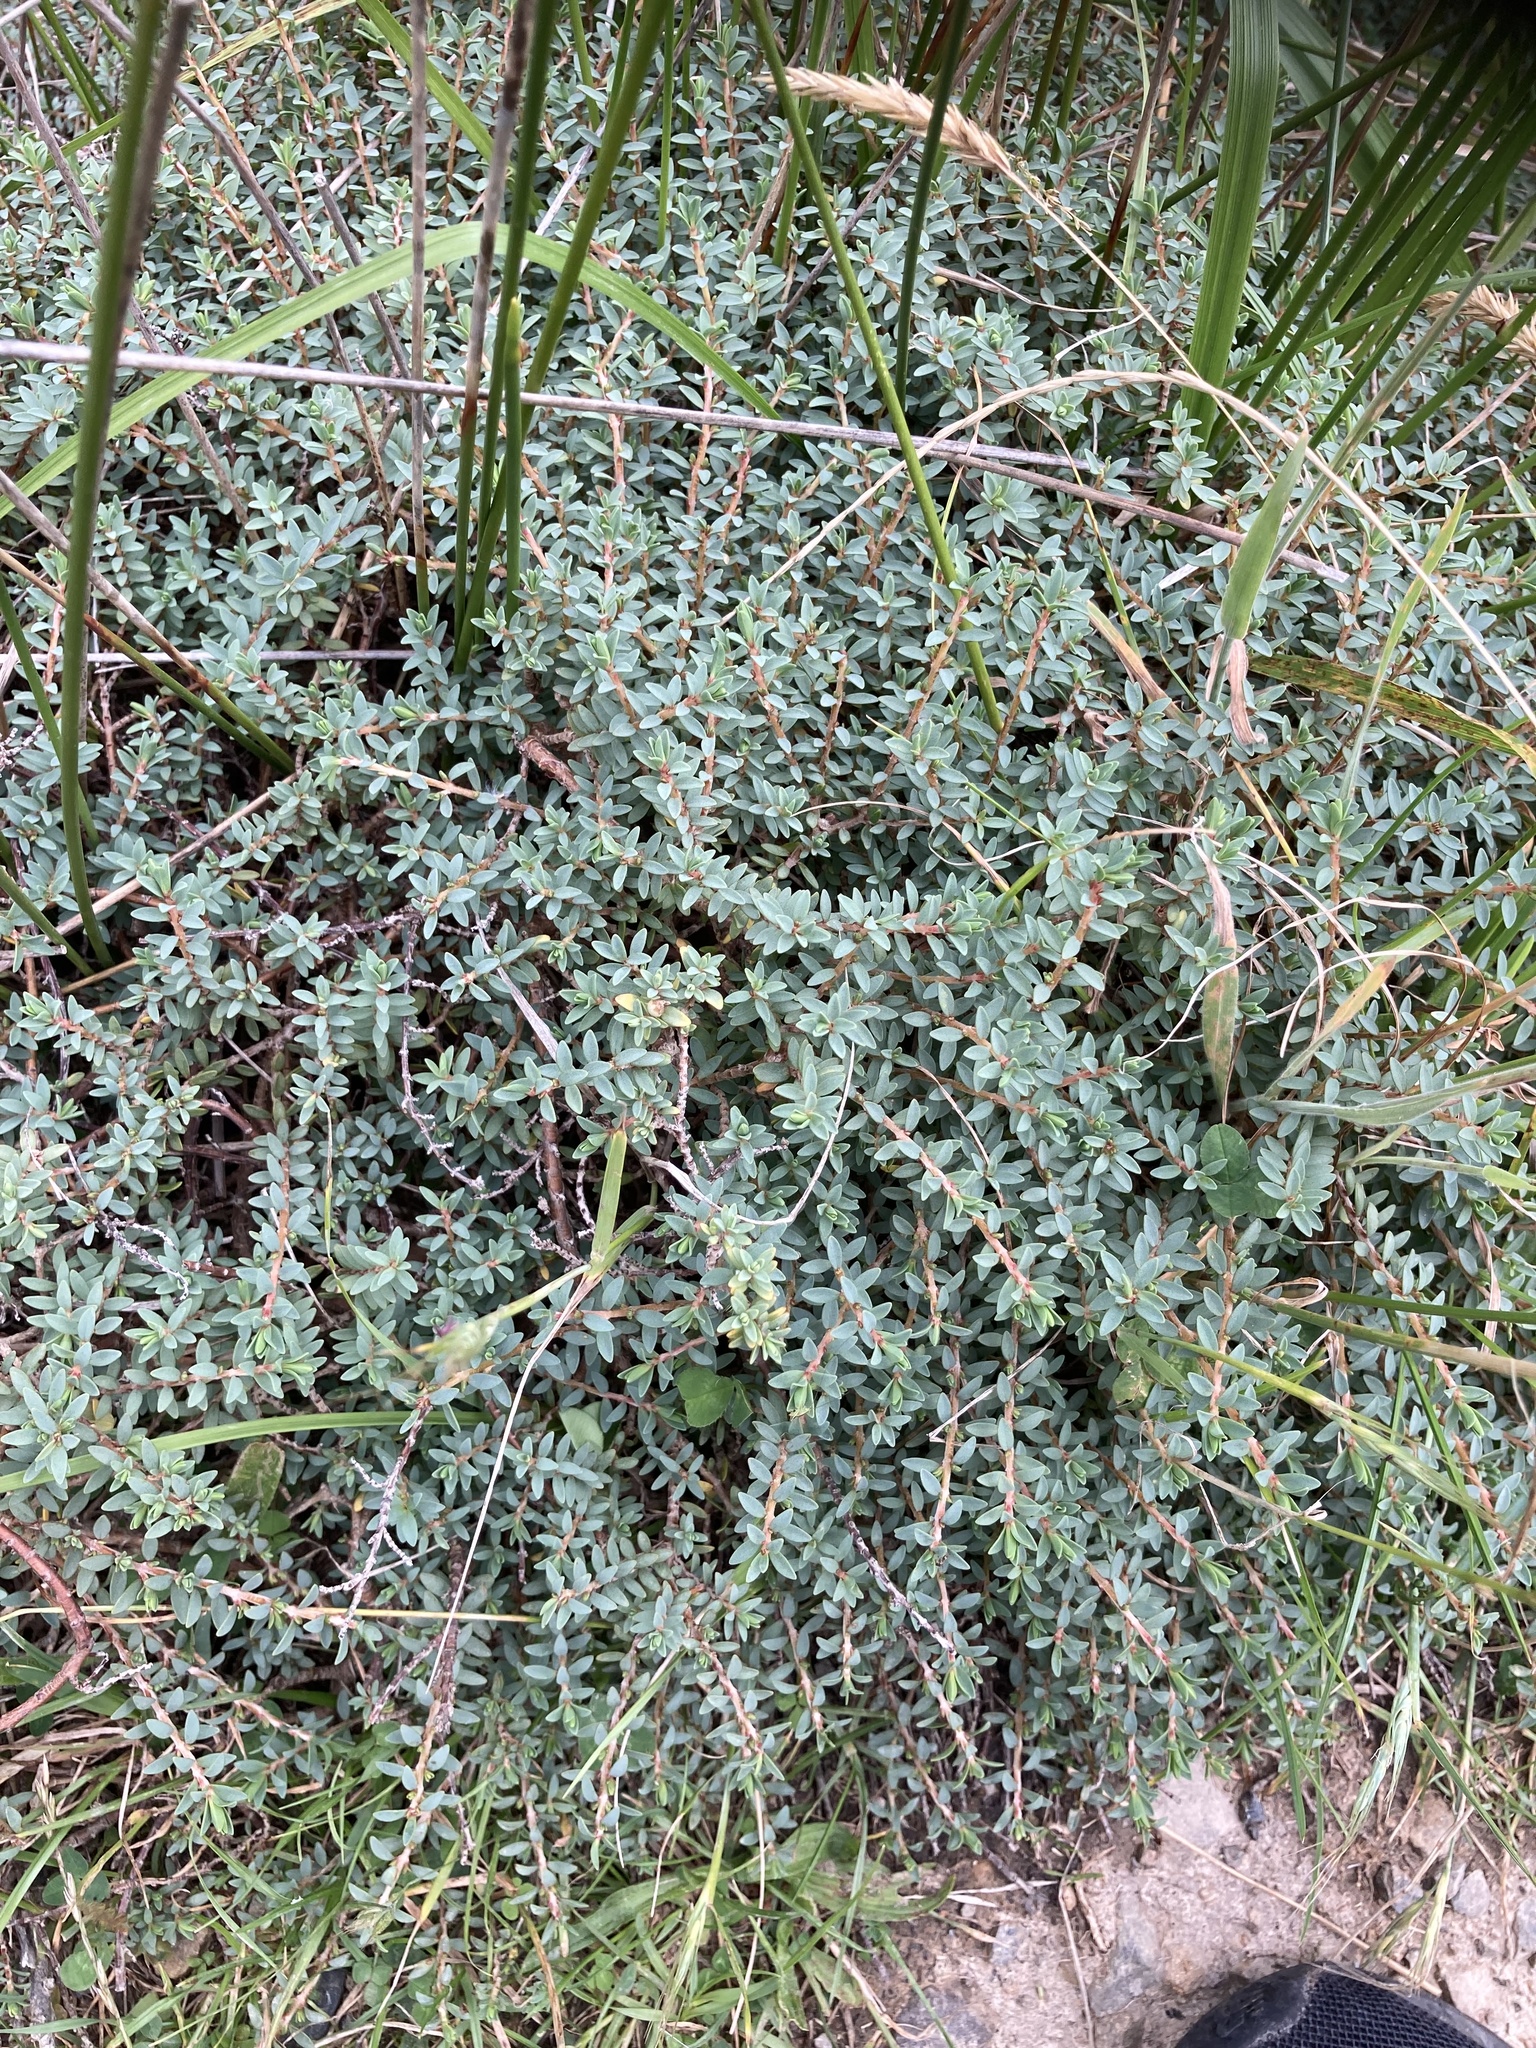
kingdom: Plantae
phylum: Tracheophyta
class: Magnoliopsida
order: Malvales
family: Thymelaeaceae
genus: Pimelea
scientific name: Pimelea prostrata
